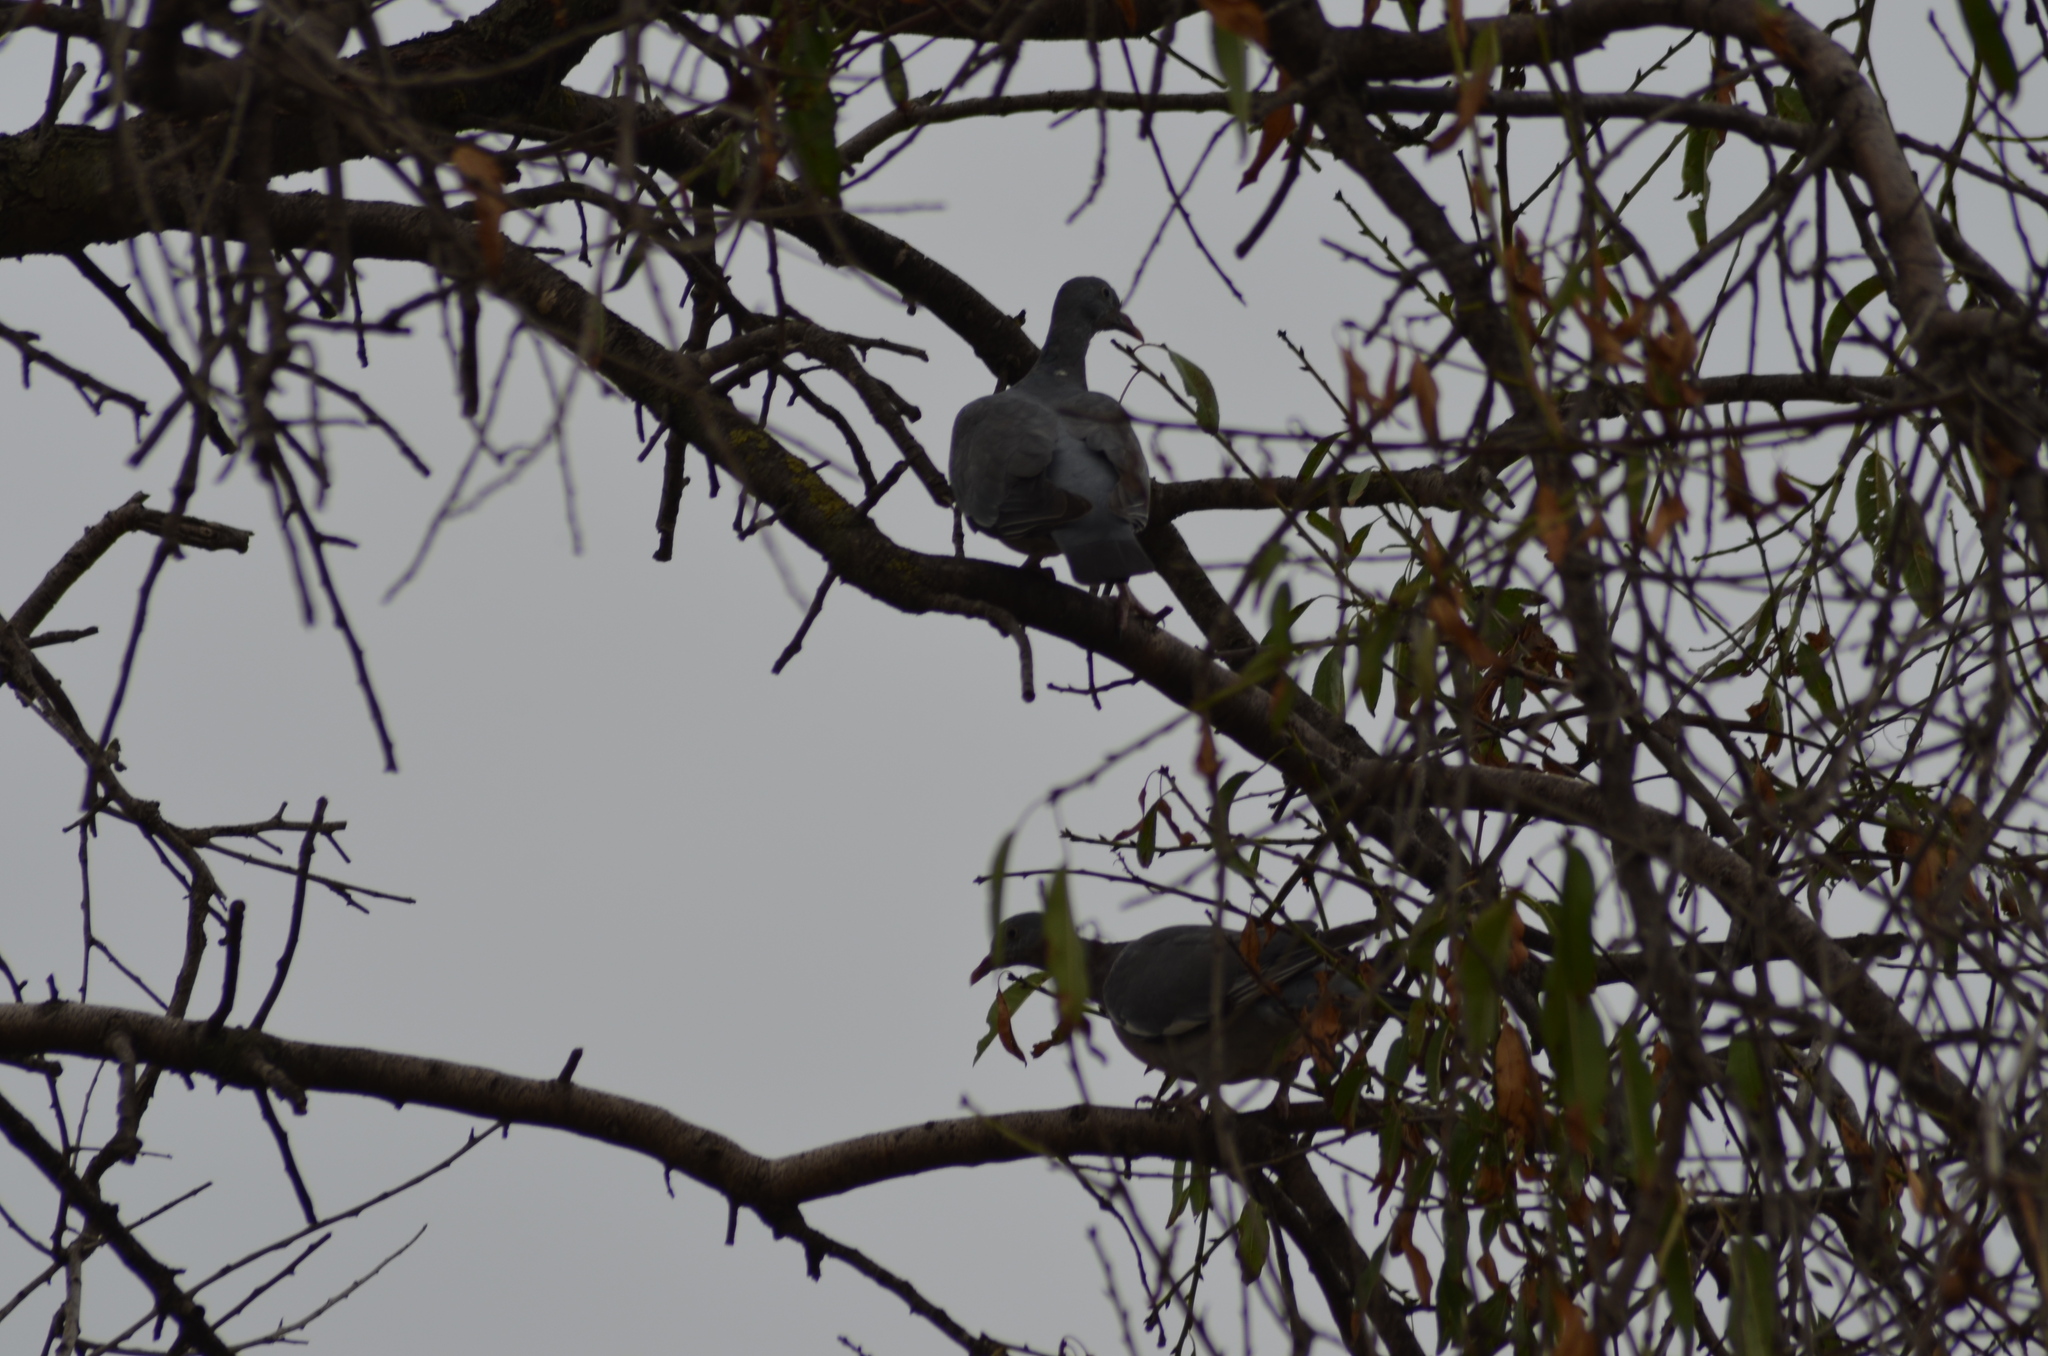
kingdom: Animalia
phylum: Chordata
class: Aves
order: Columbiformes
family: Columbidae
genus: Columba
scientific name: Columba palumbus
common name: Common wood pigeon
